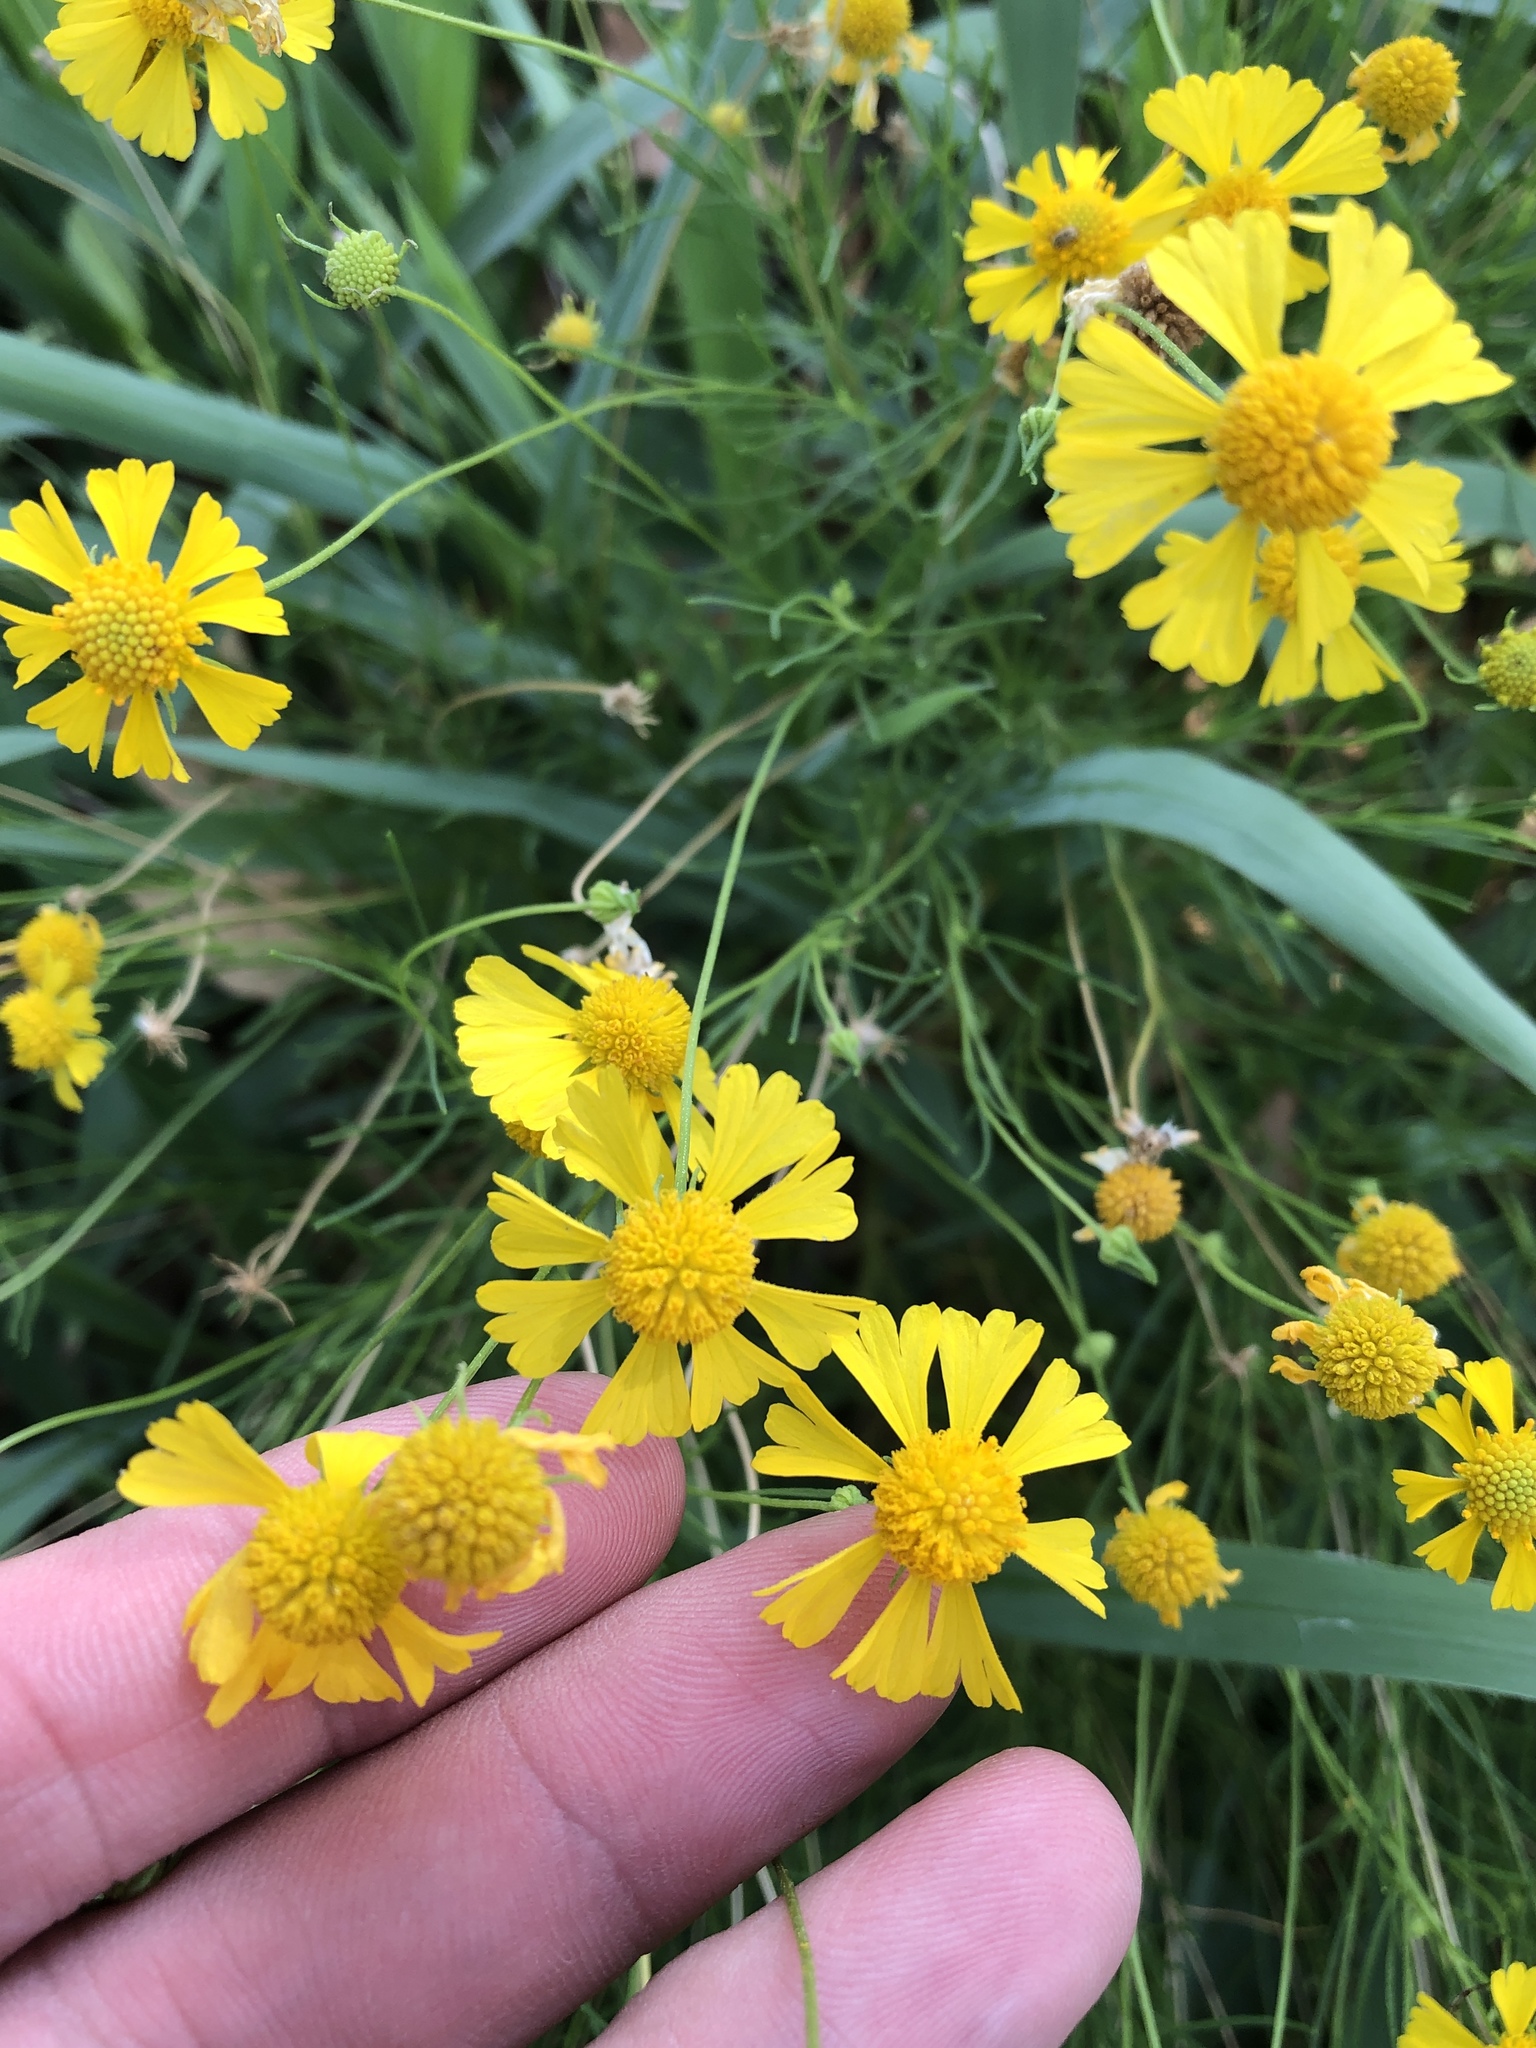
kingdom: Plantae
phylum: Tracheophyta
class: Magnoliopsida
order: Asterales
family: Asteraceae
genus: Helenium
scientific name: Helenium amarum
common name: Bitter sneezeweed
